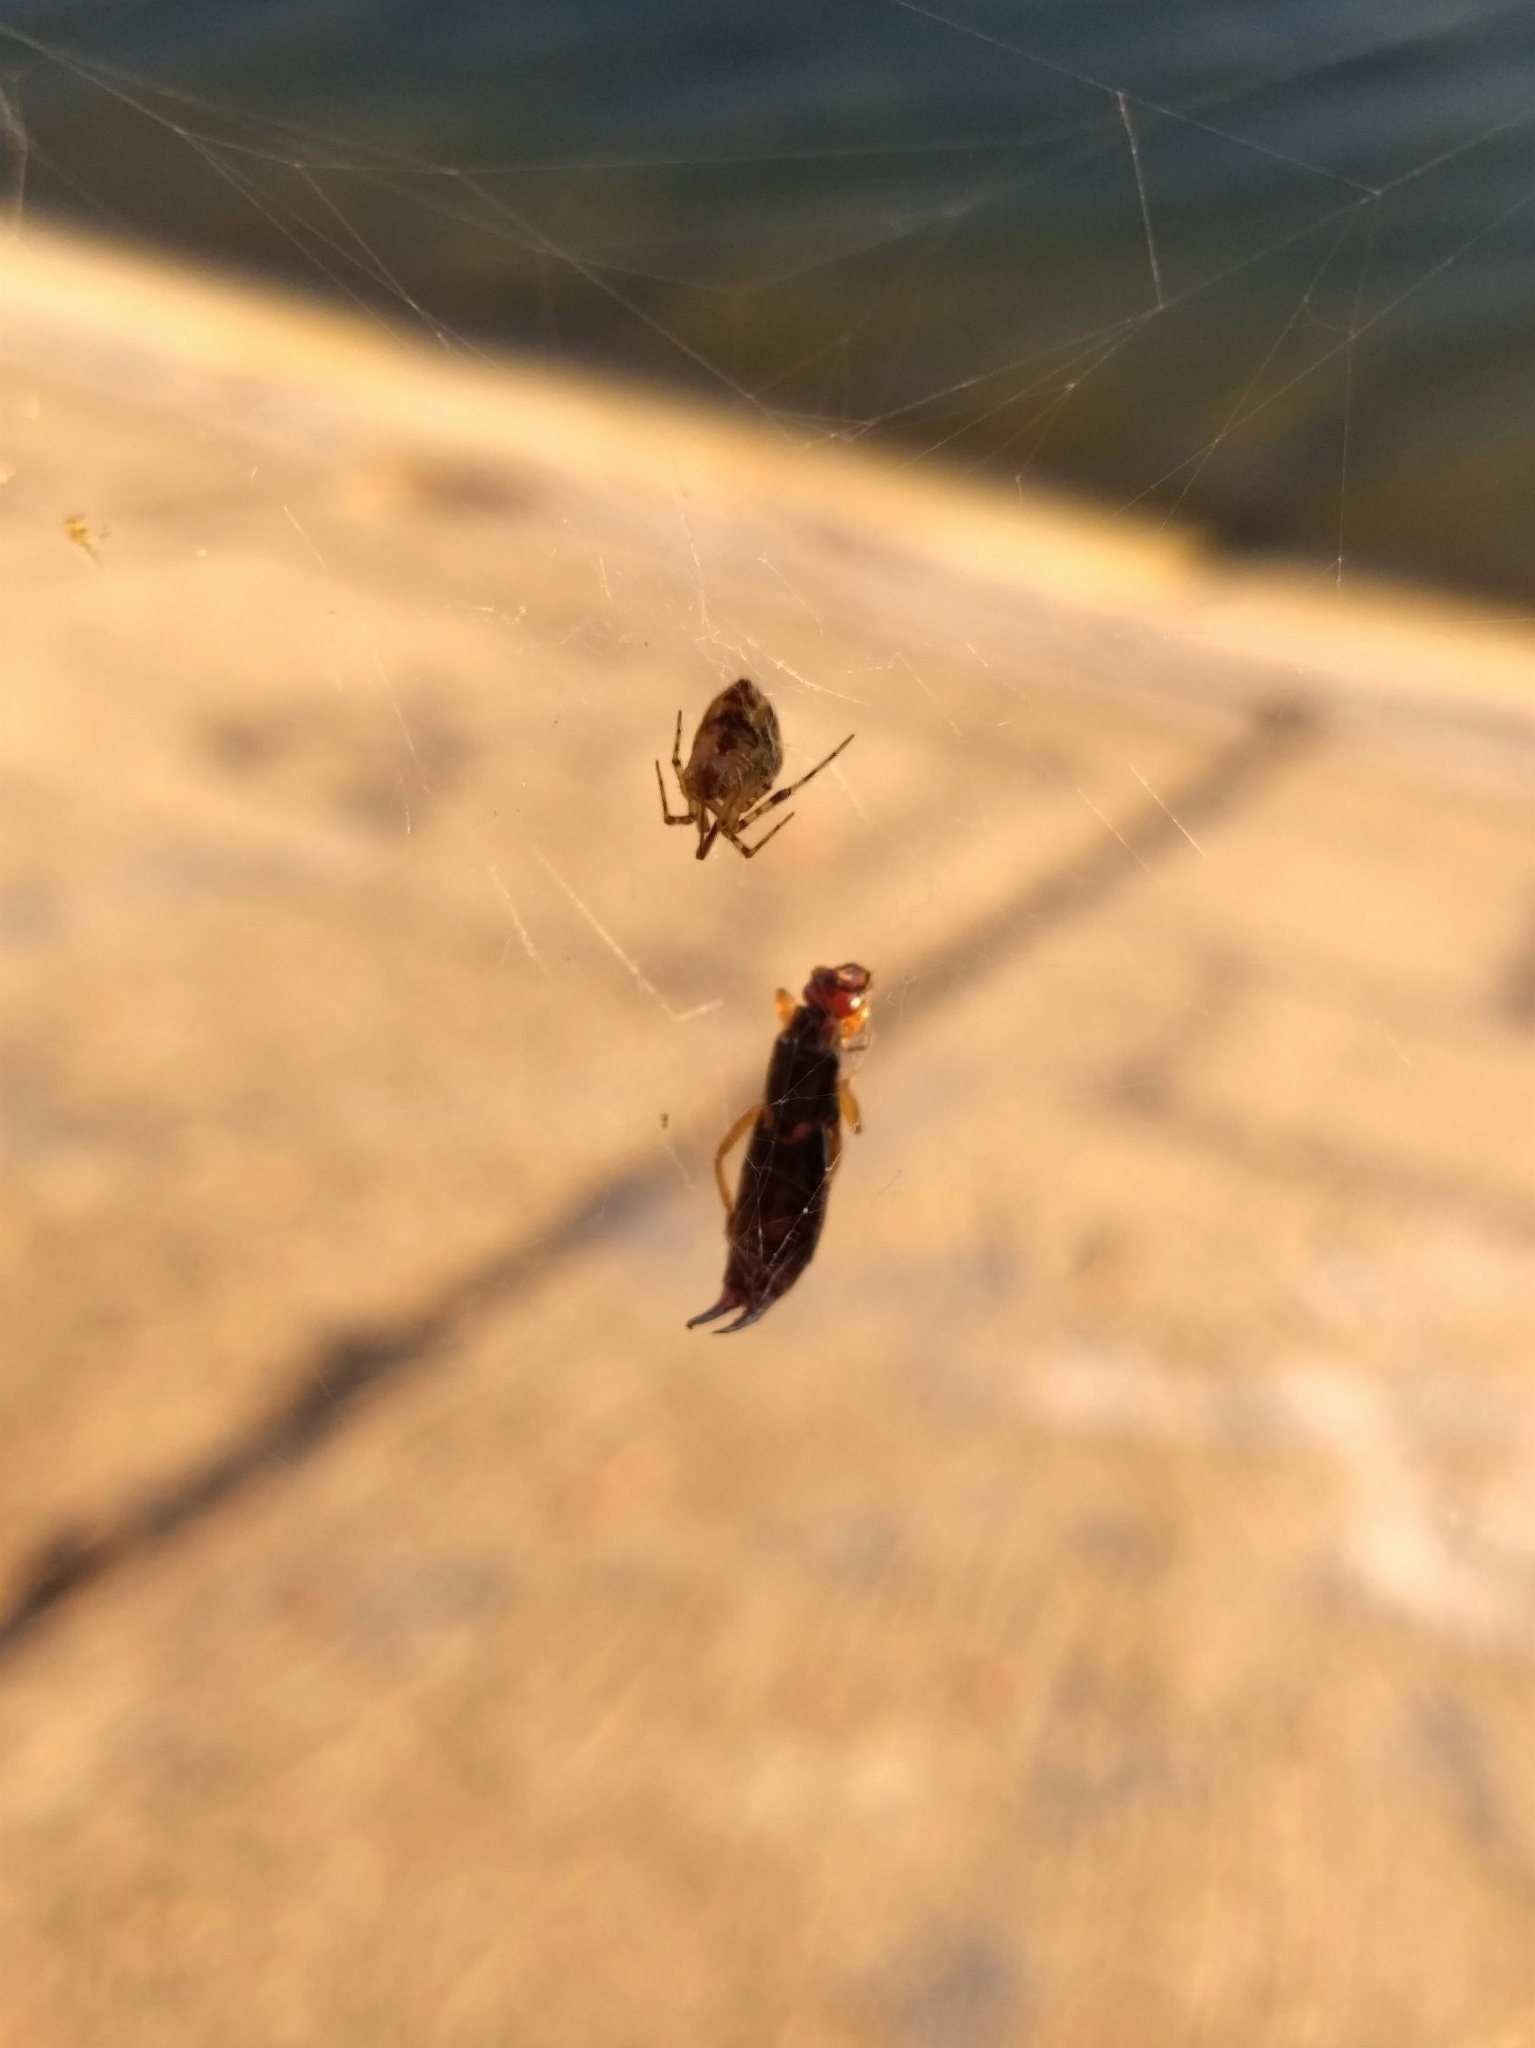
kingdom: Animalia
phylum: Arthropoda
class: Insecta
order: Dermaptera
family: Forficulidae
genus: Forficula
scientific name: Forficula
